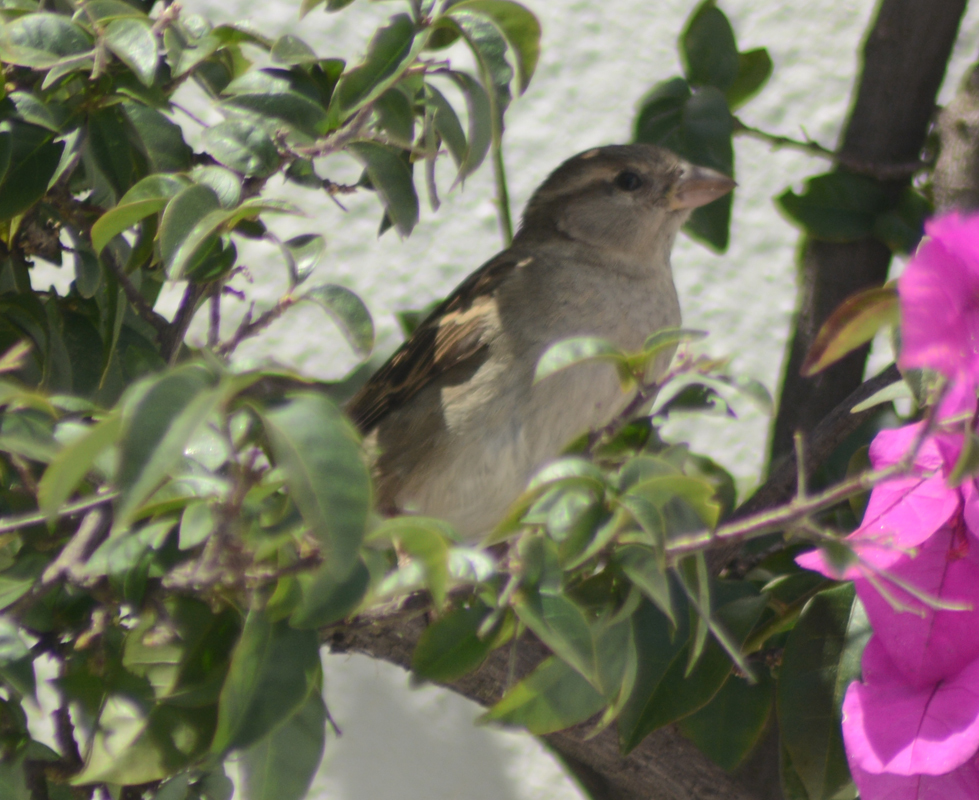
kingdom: Animalia
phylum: Chordata
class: Aves
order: Passeriformes
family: Passeridae
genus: Passer
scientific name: Passer domesticus
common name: House sparrow
